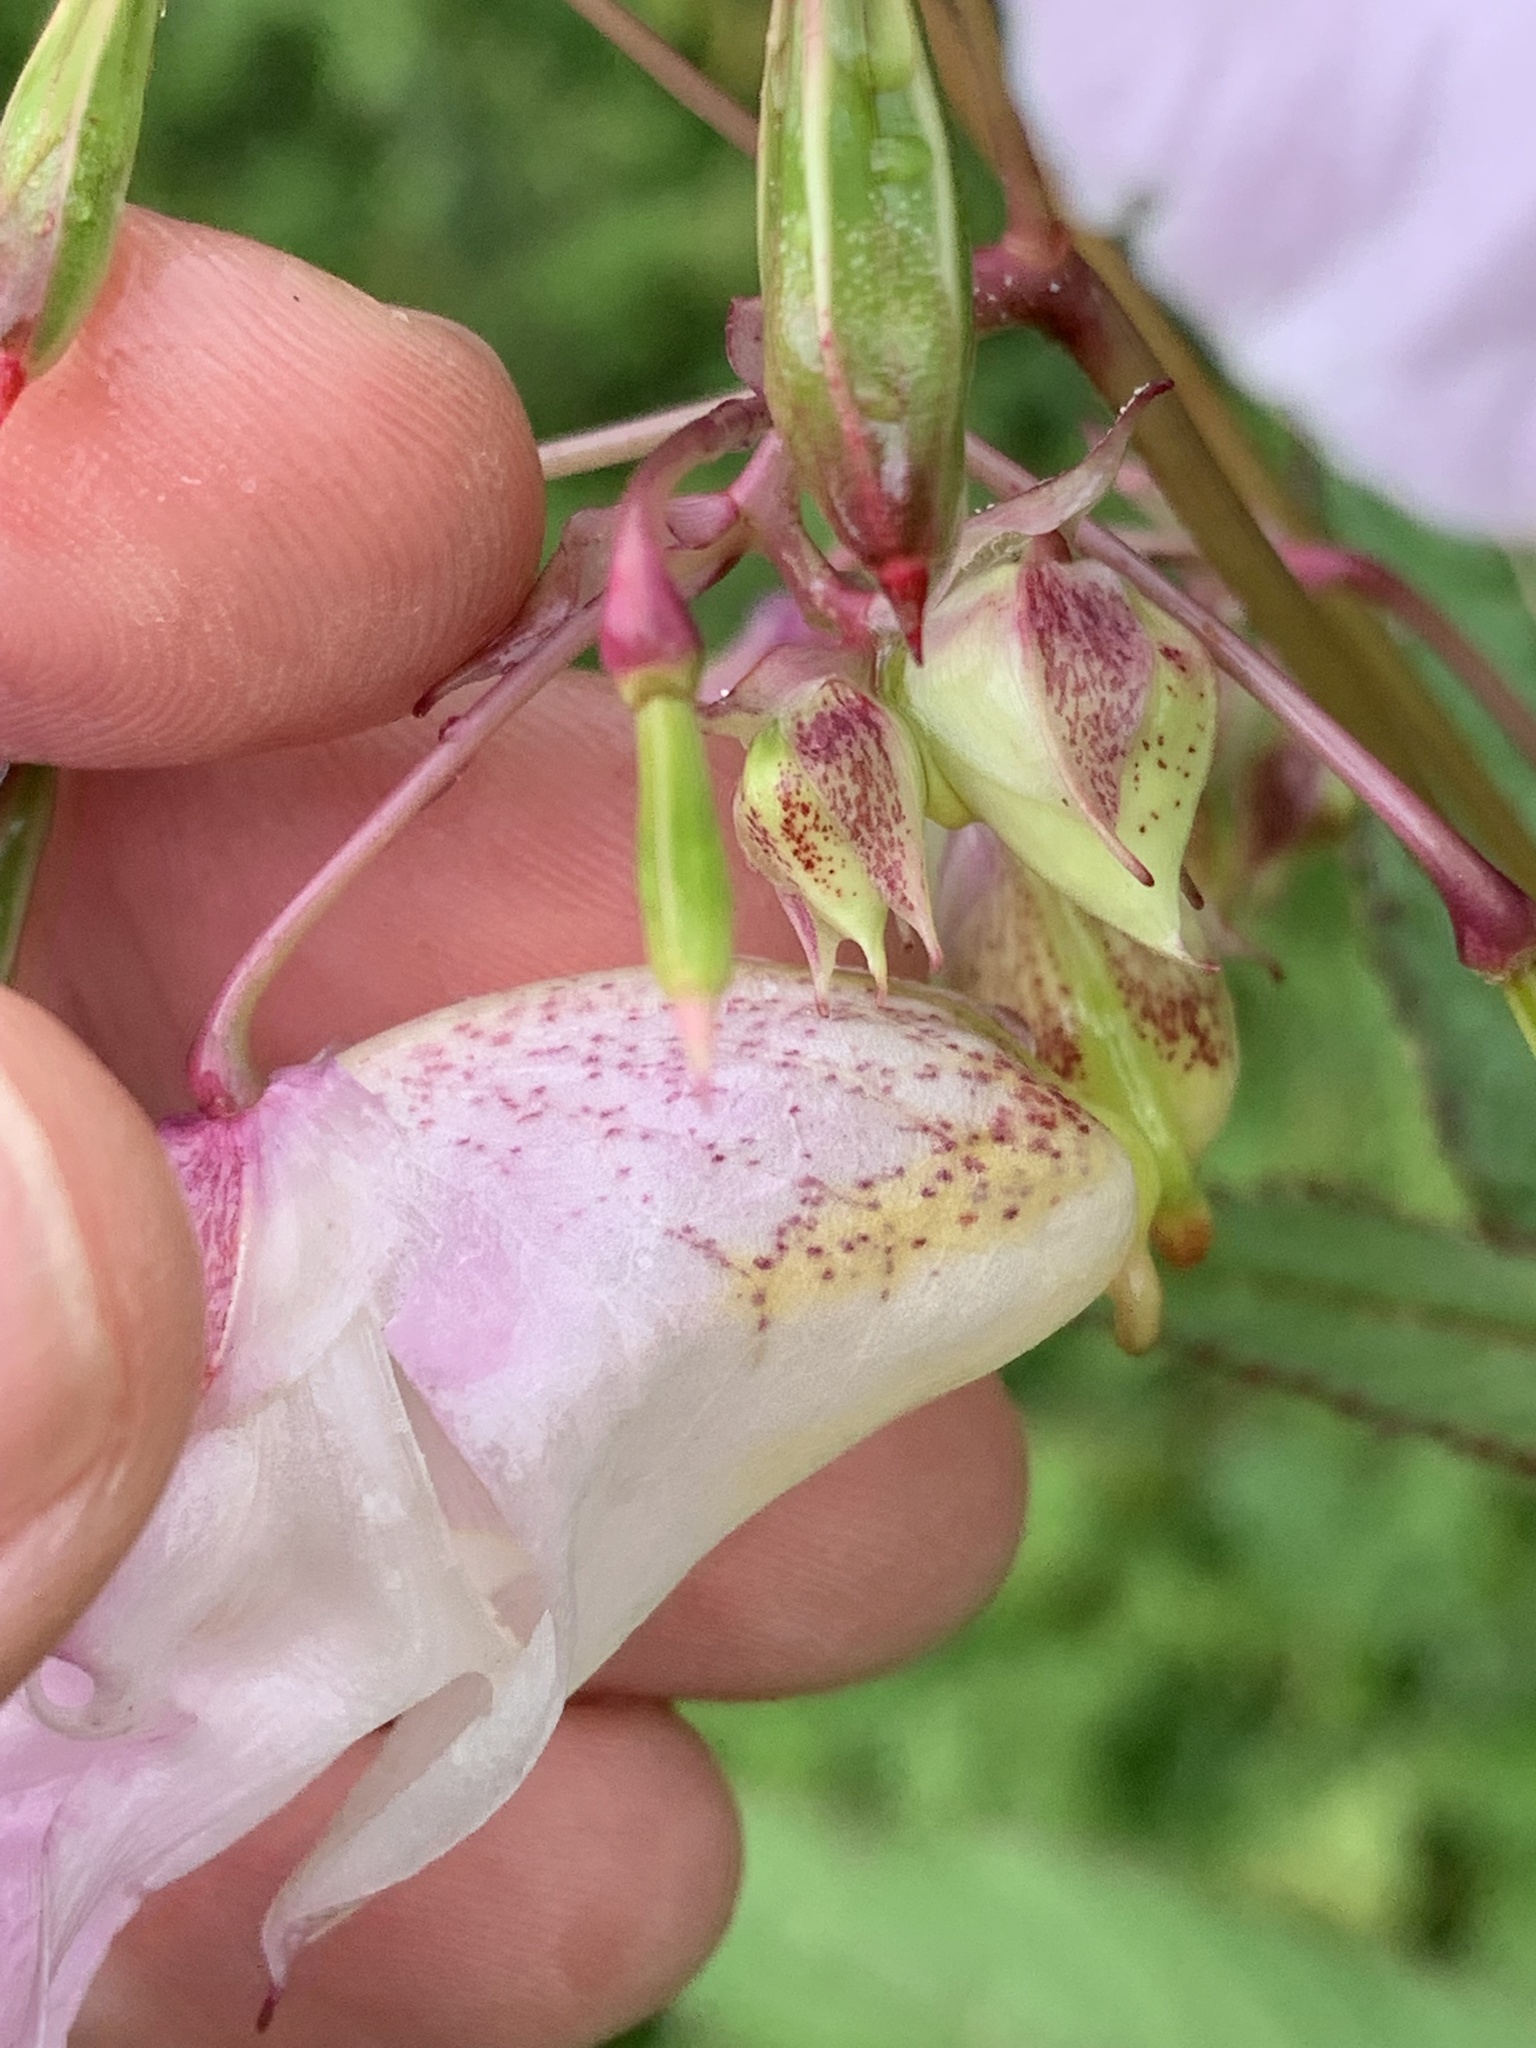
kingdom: Plantae
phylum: Tracheophyta
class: Magnoliopsida
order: Ericales
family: Balsaminaceae
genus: Impatiens
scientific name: Impatiens glandulifera
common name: Himalayan balsam
